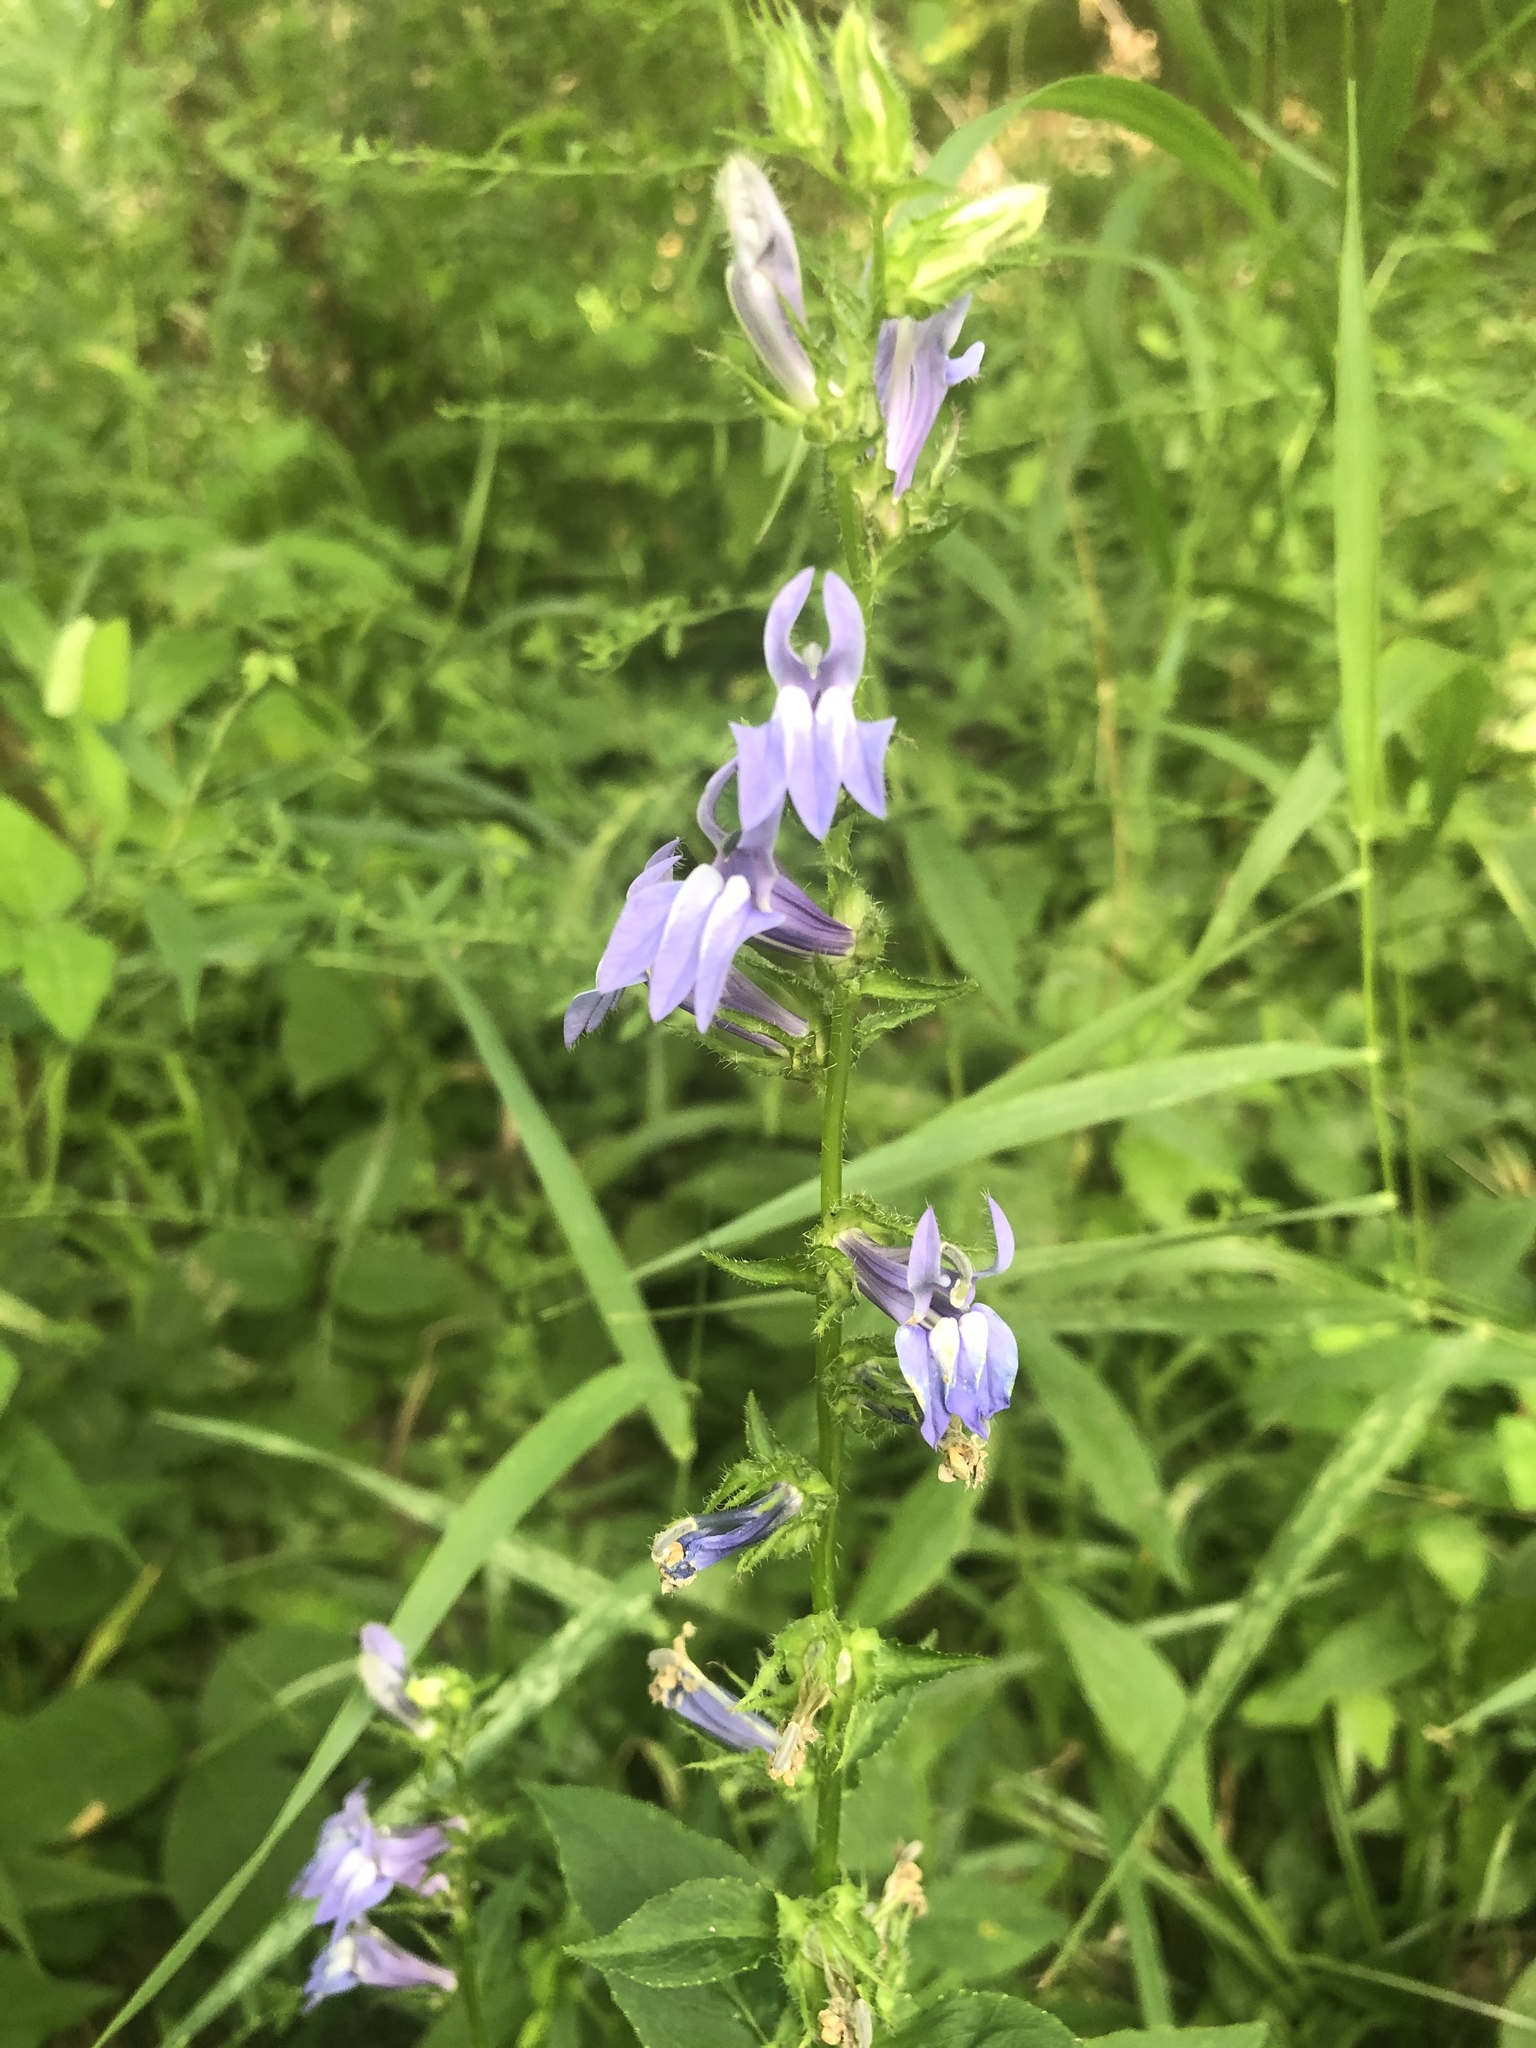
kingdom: Plantae
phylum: Tracheophyta
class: Magnoliopsida
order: Asterales
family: Campanulaceae
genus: Lobelia
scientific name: Lobelia siphilitica
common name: Great lobelia
